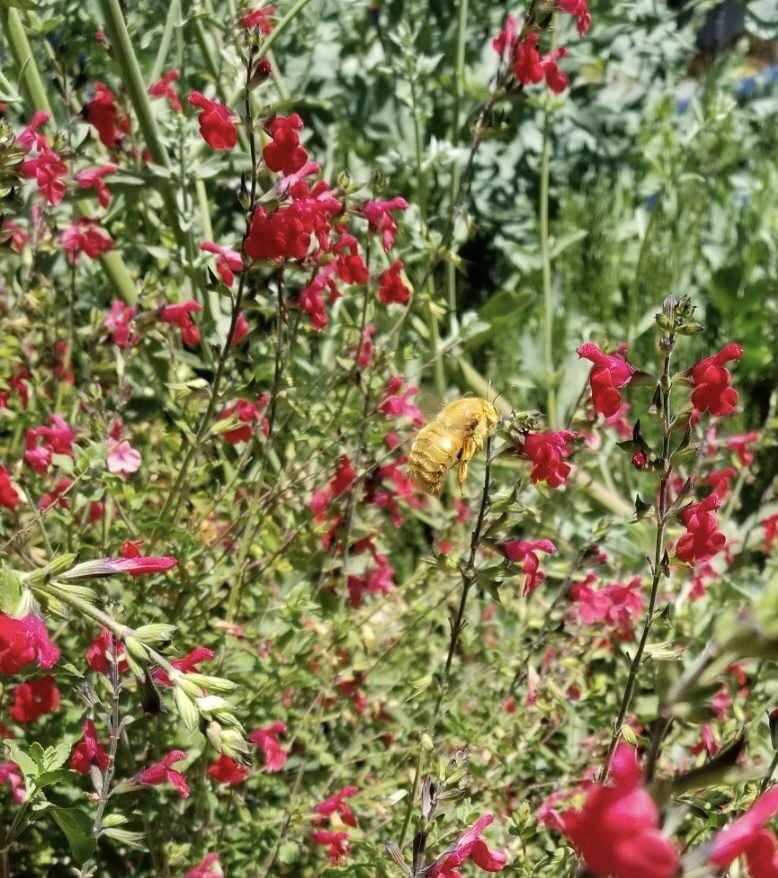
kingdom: Animalia
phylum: Arthropoda
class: Insecta
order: Hymenoptera
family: Apidae
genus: Xylocopa
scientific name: Xylocopa sonorina
